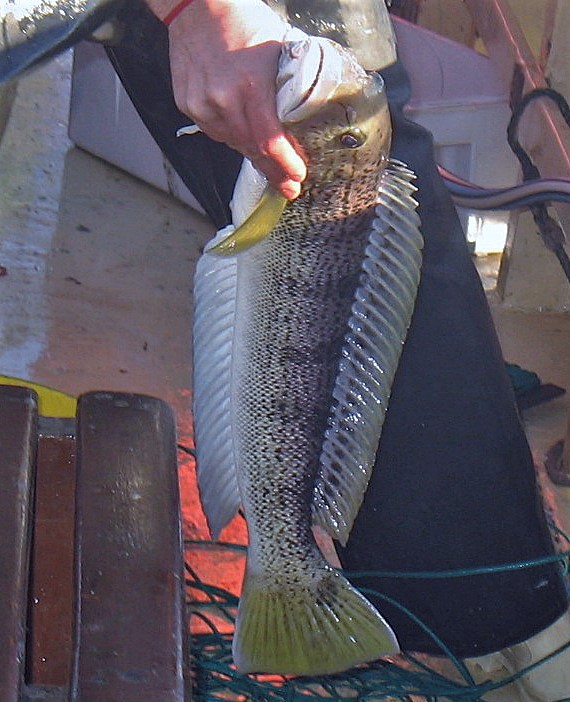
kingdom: Animalia
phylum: Chordata
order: Perciformes
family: Pinguipedidae
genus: Pseudopercis
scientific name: Pseudopercis semifasciata
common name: Argentinian sandperch
